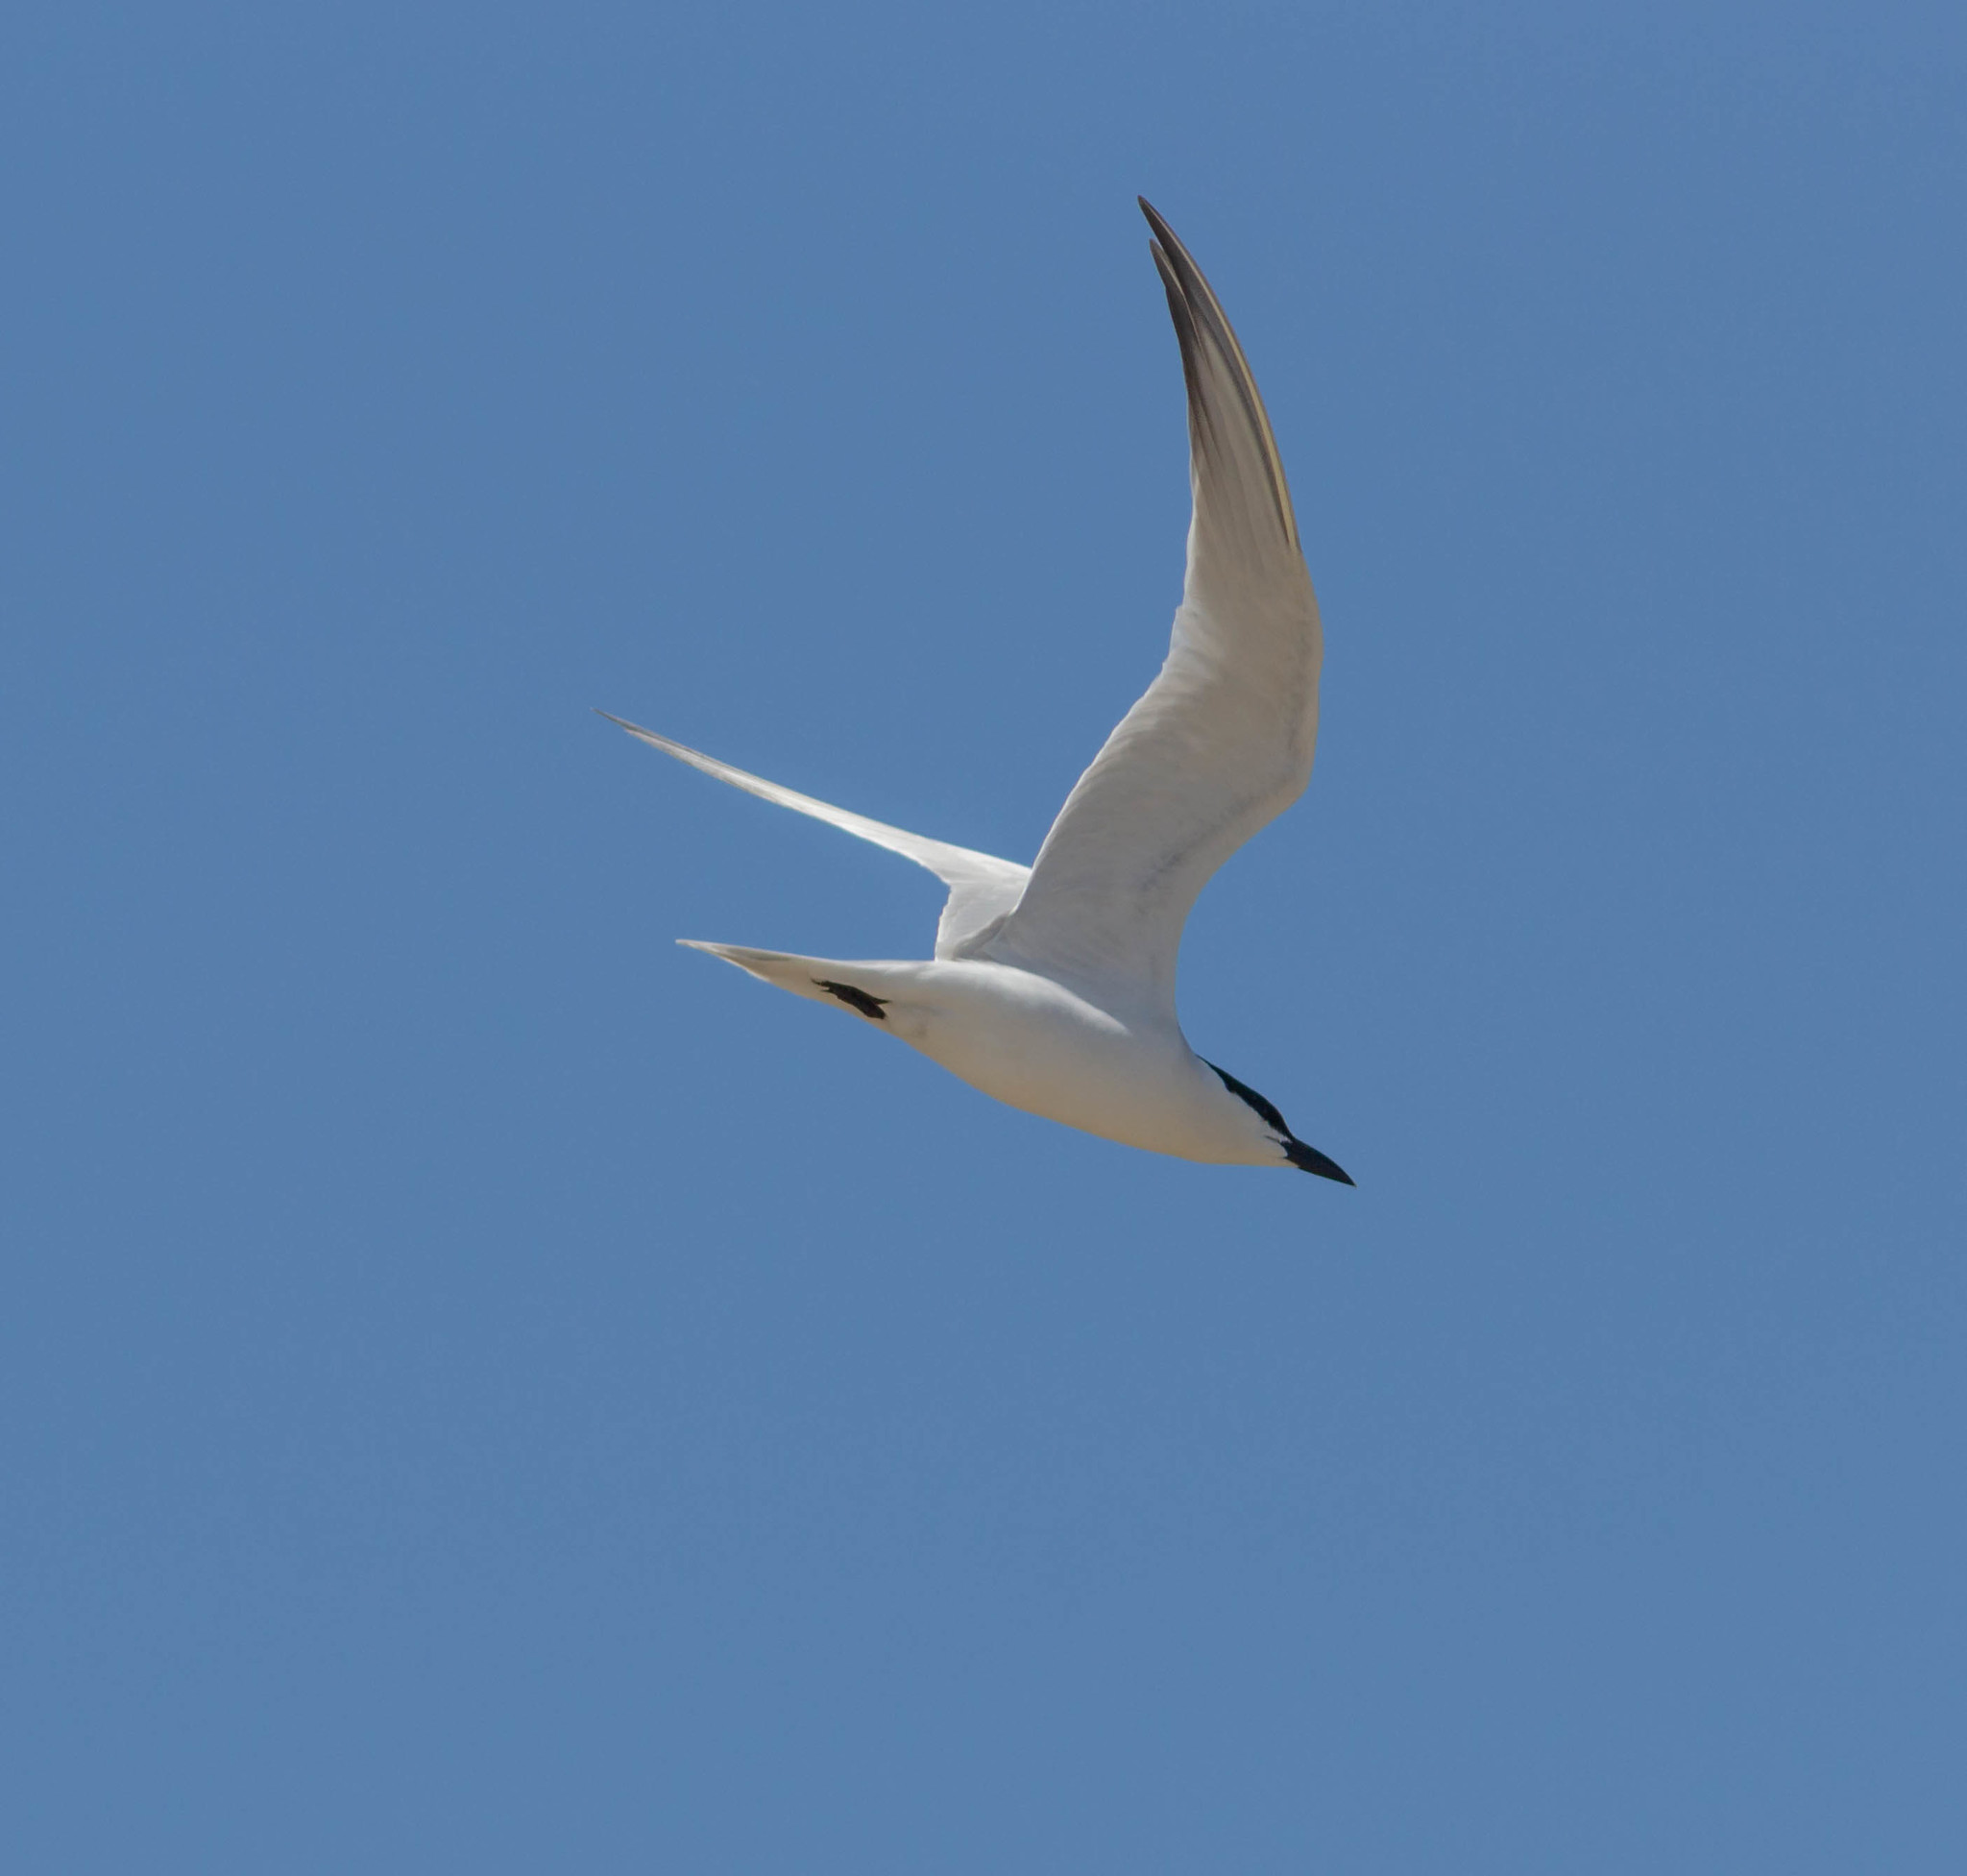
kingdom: Animalia
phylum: Chordata
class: Aves
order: Charadriiformes
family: Laridae
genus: Gelochelidon
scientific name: Gelochelidon nilotica
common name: Gull-billed tern
